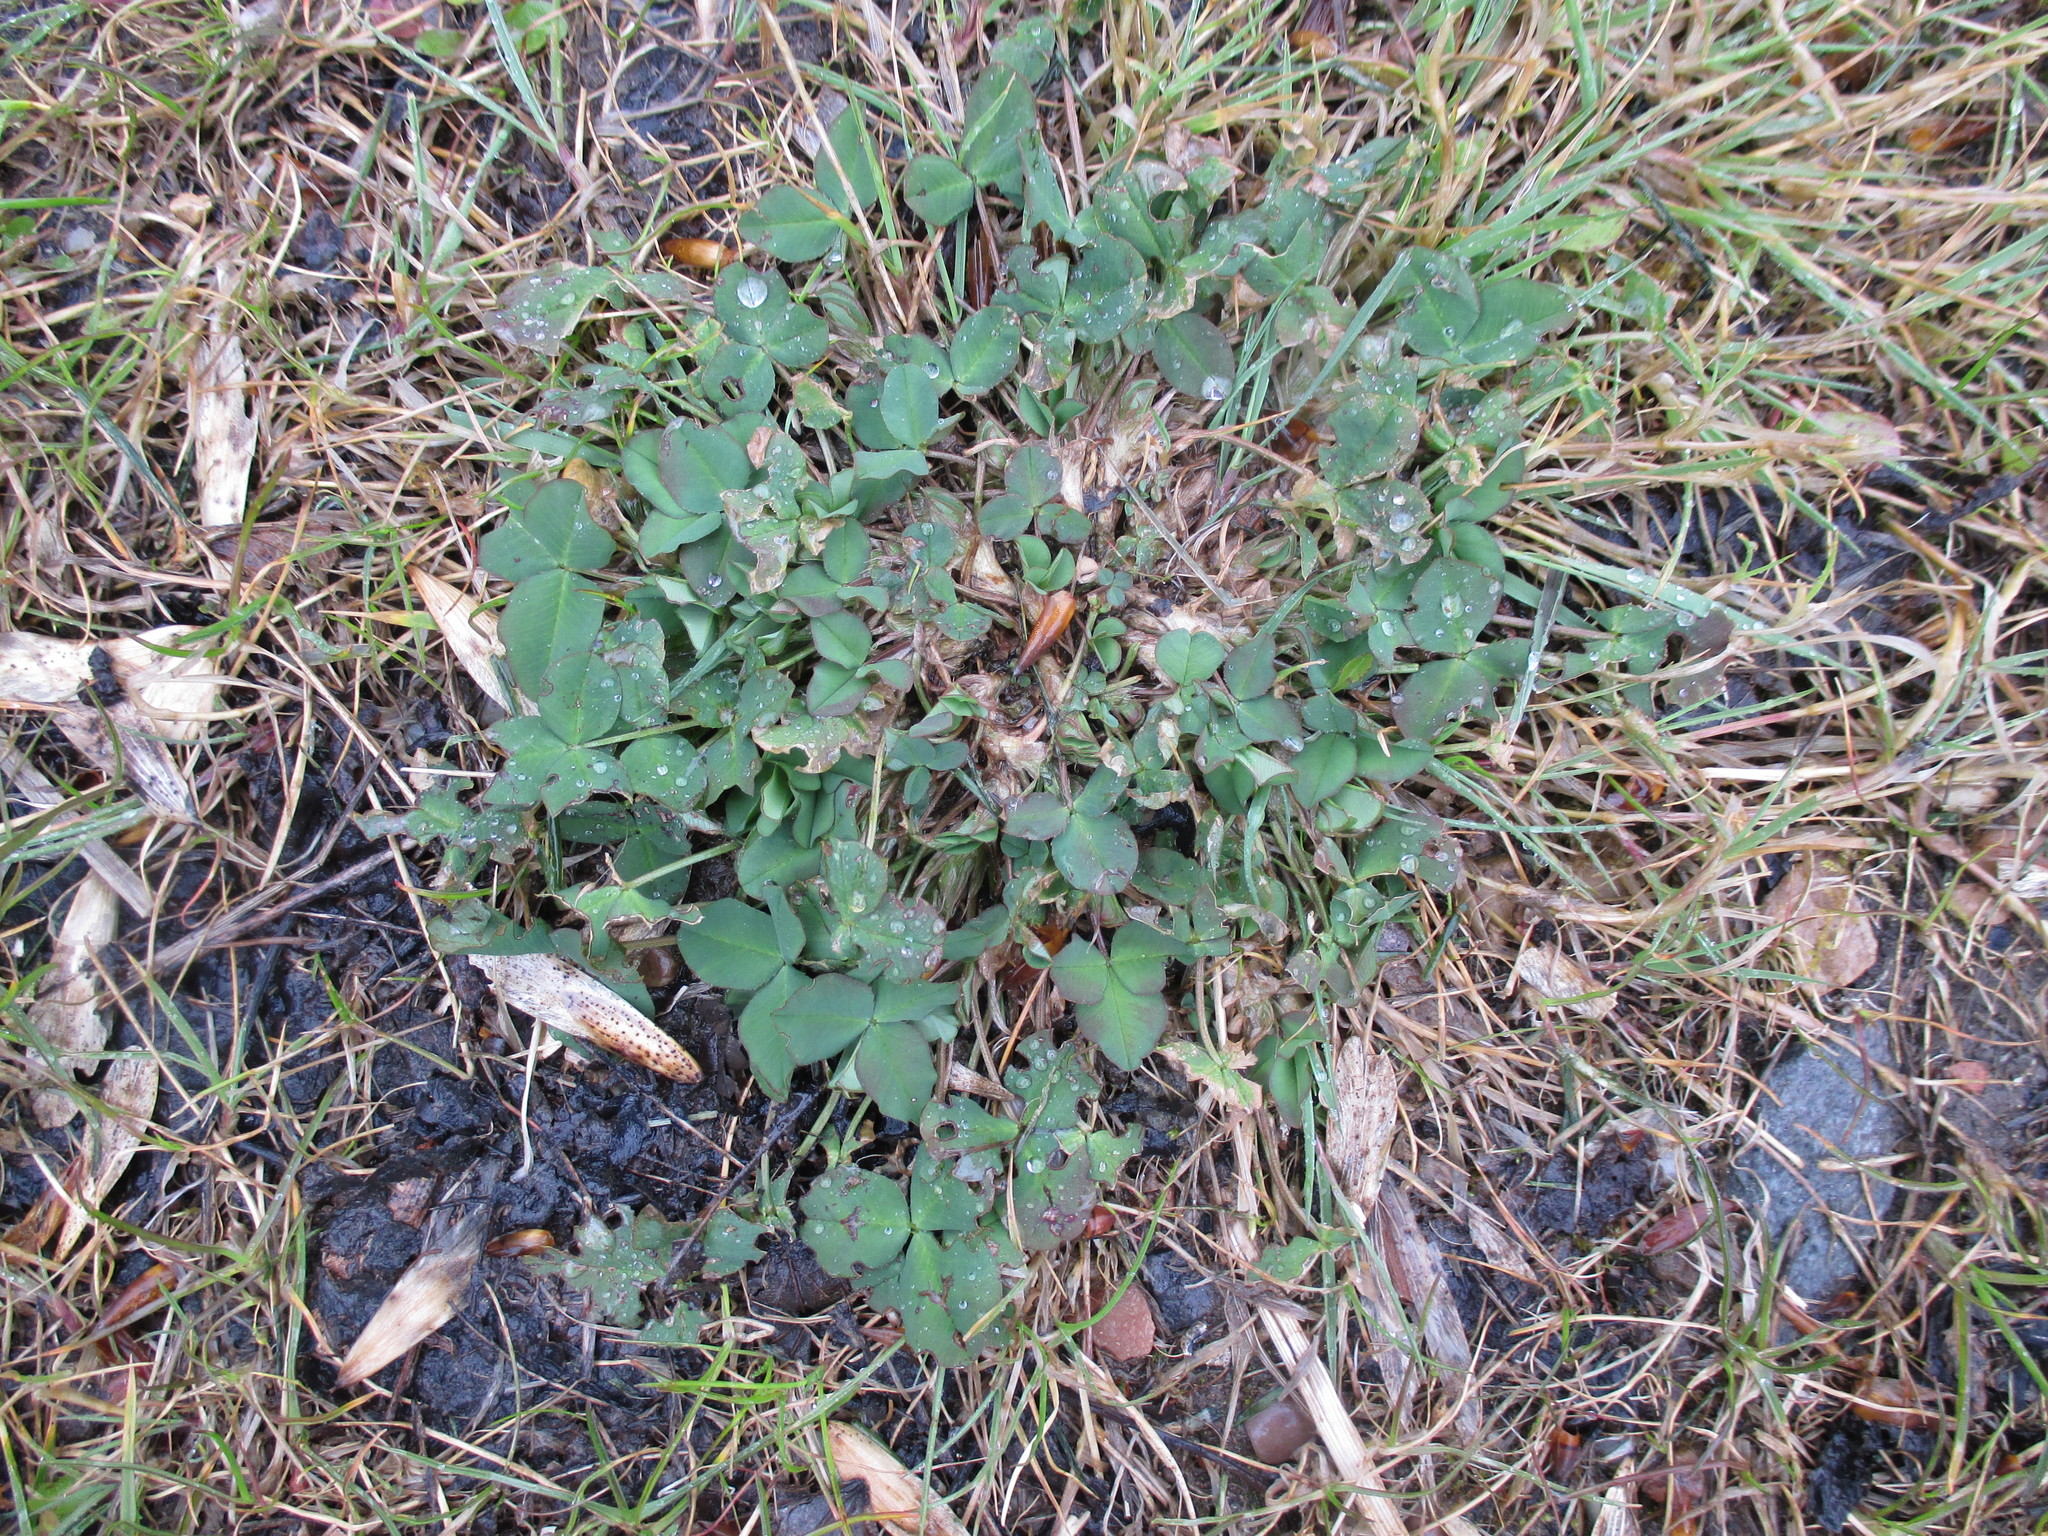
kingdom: Plantae
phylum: Tracheophyta
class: Magnoliopsida
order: Fabales
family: Fabaceae
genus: Trifolium
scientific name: Trifolium repens
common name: White clover
